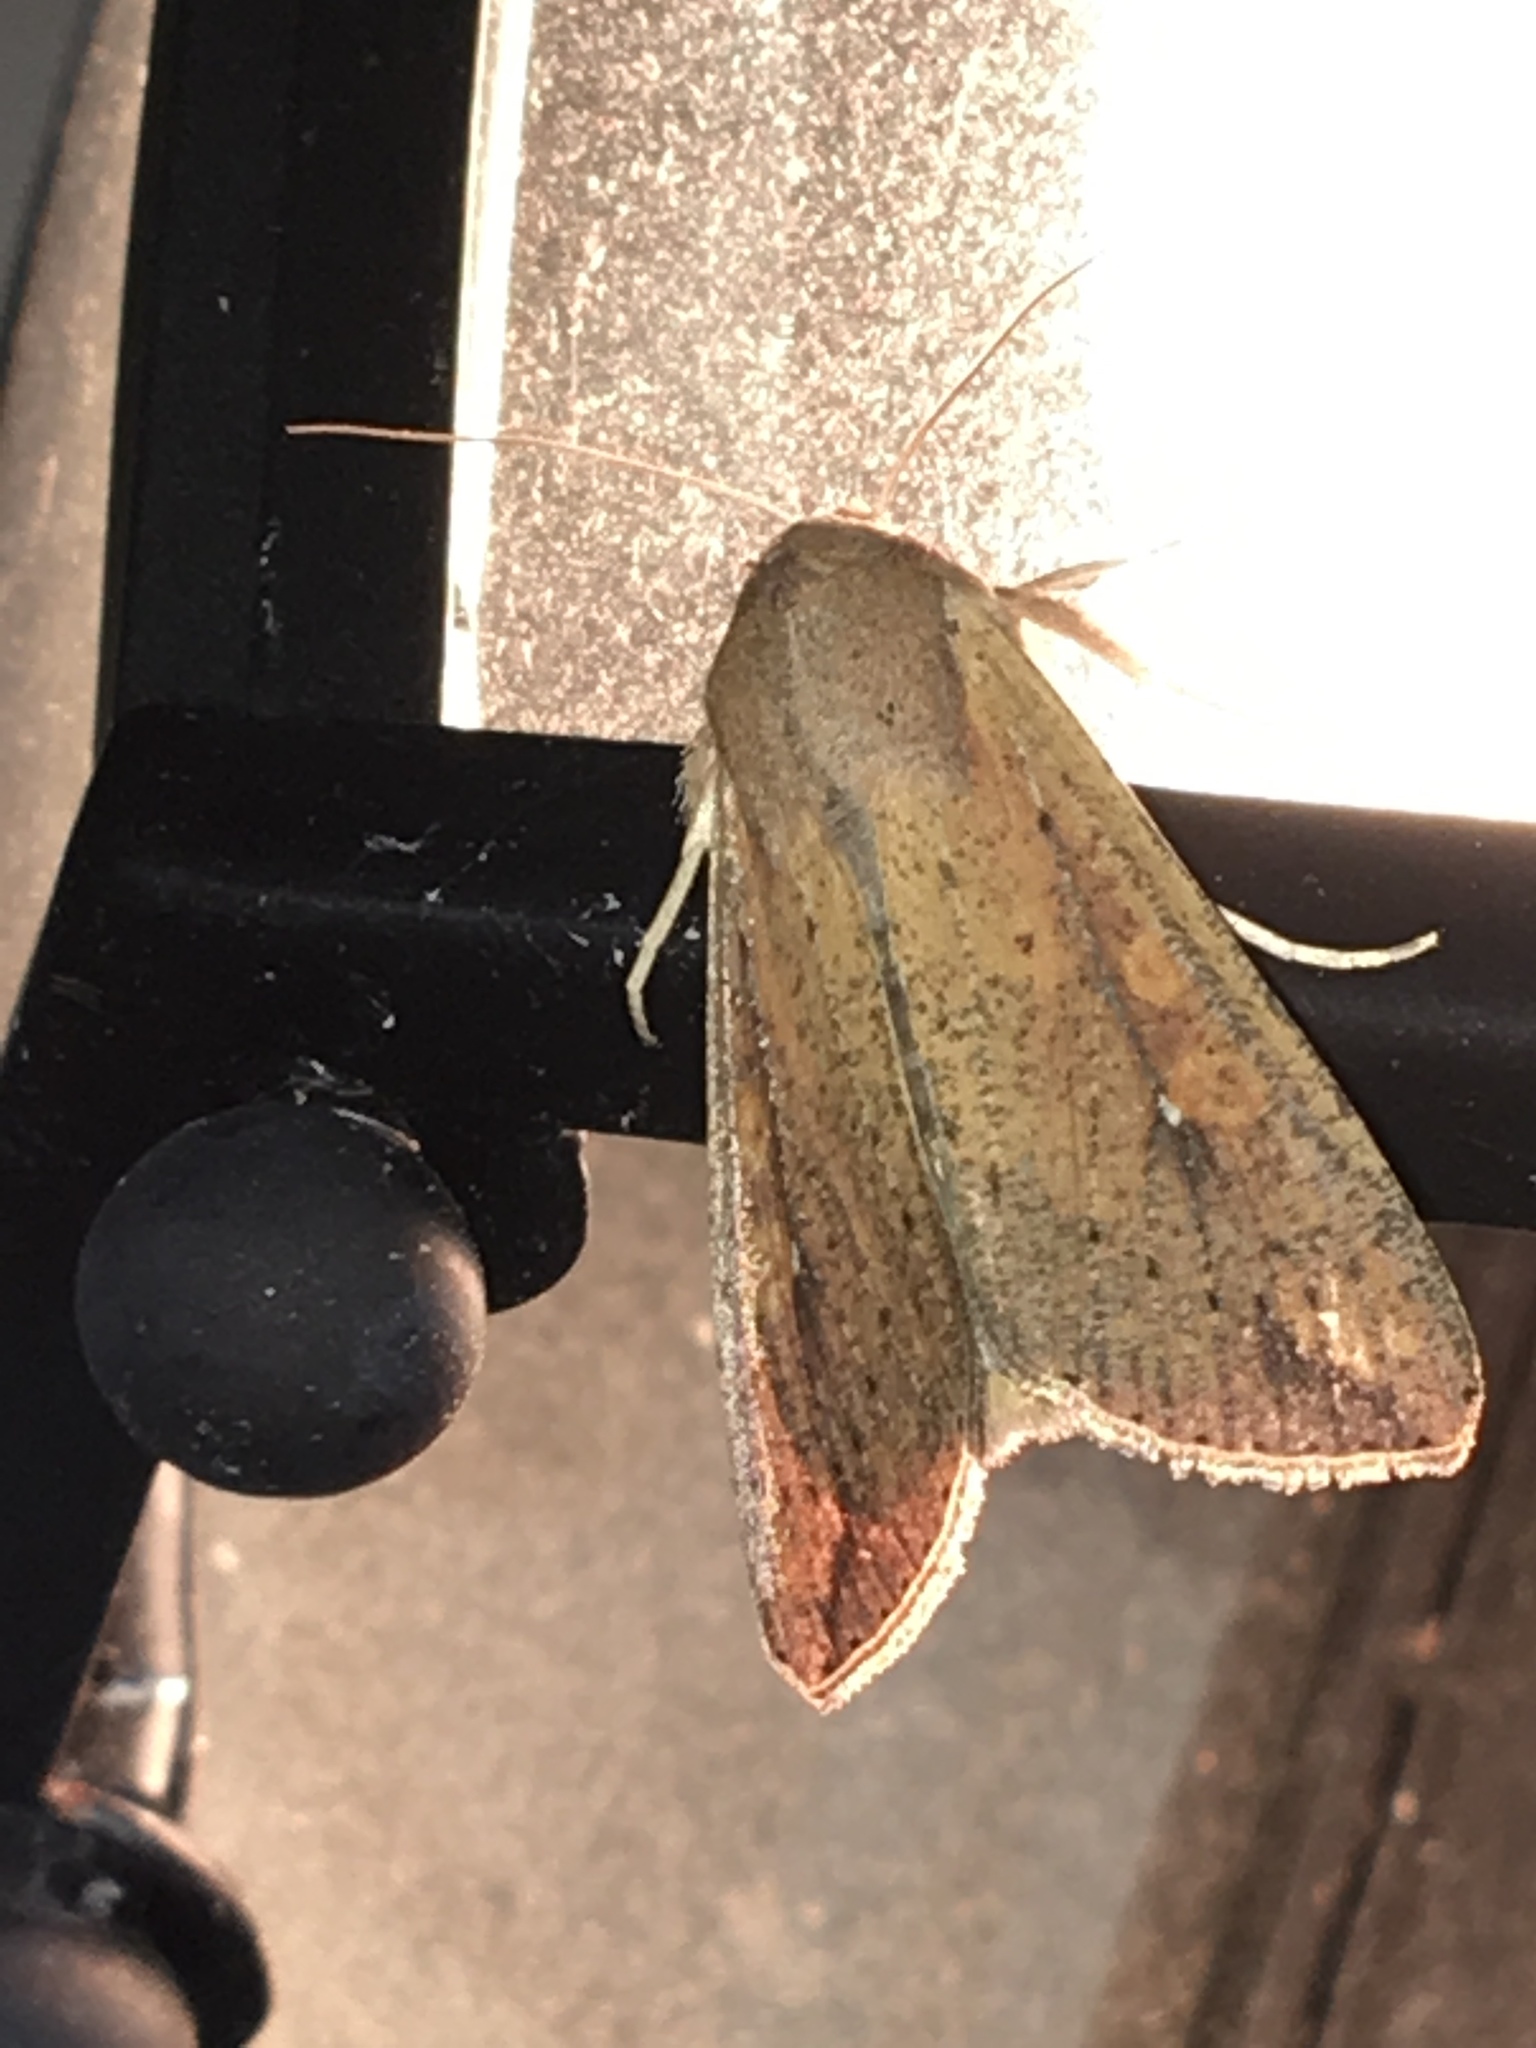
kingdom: Animalia
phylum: Arthropoda
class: Insecta
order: Lepidoptera
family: Noctuidae
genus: Mythimna
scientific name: Mythimna unipuncta
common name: White-speck
